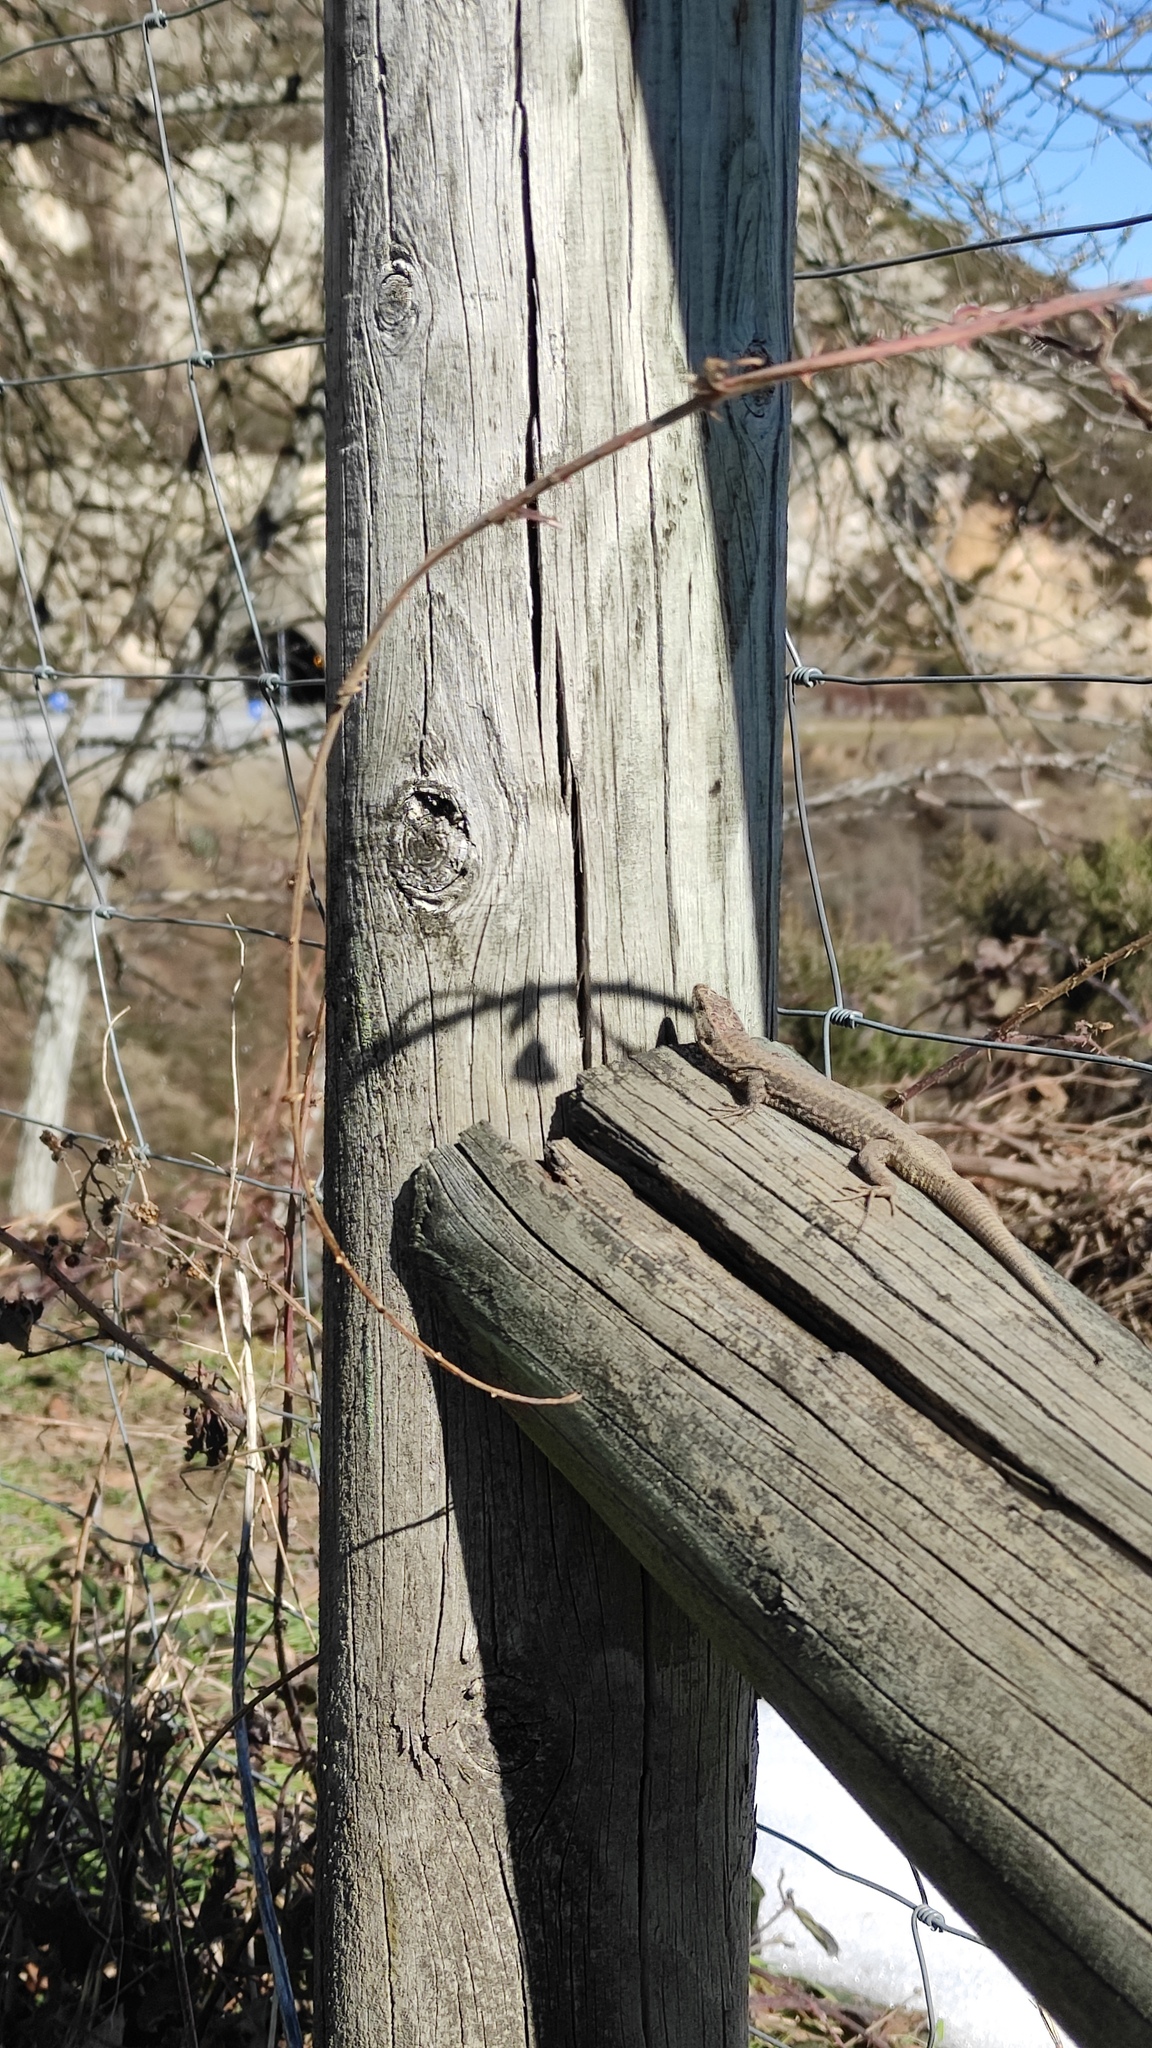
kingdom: Animalia
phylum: Chordata
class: Squamata
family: Lacertidae
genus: Podarcis
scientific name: Podarcis muralis
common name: Common wall lizard
